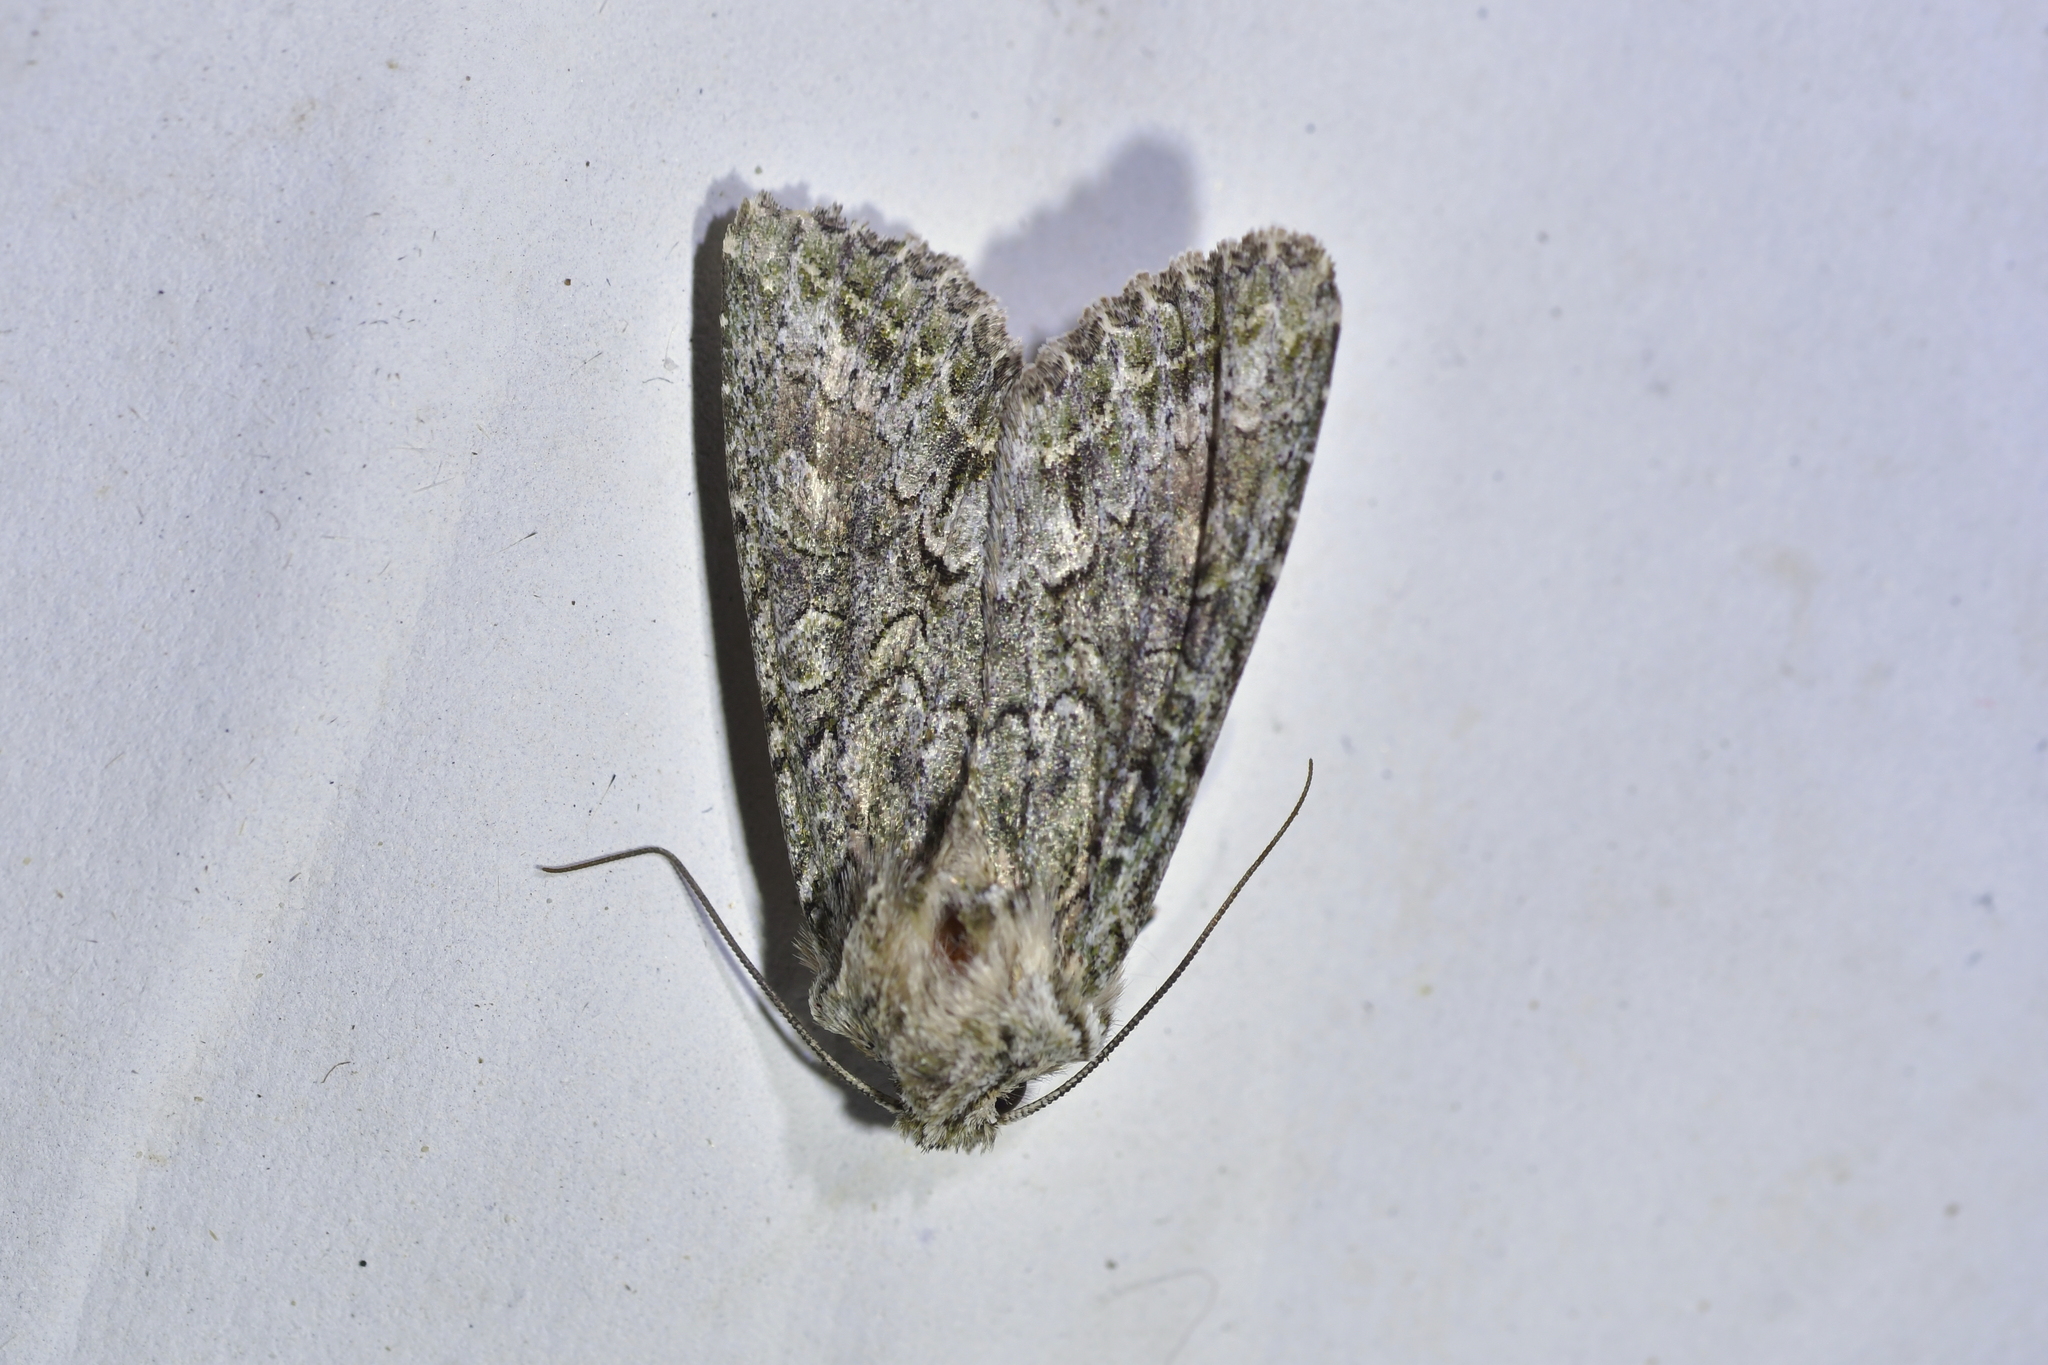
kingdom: Animalia
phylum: Arthropoda
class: Insecta
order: Lepidoptera
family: Noctuidae
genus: Ichneutica
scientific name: Ichneutica mutans
